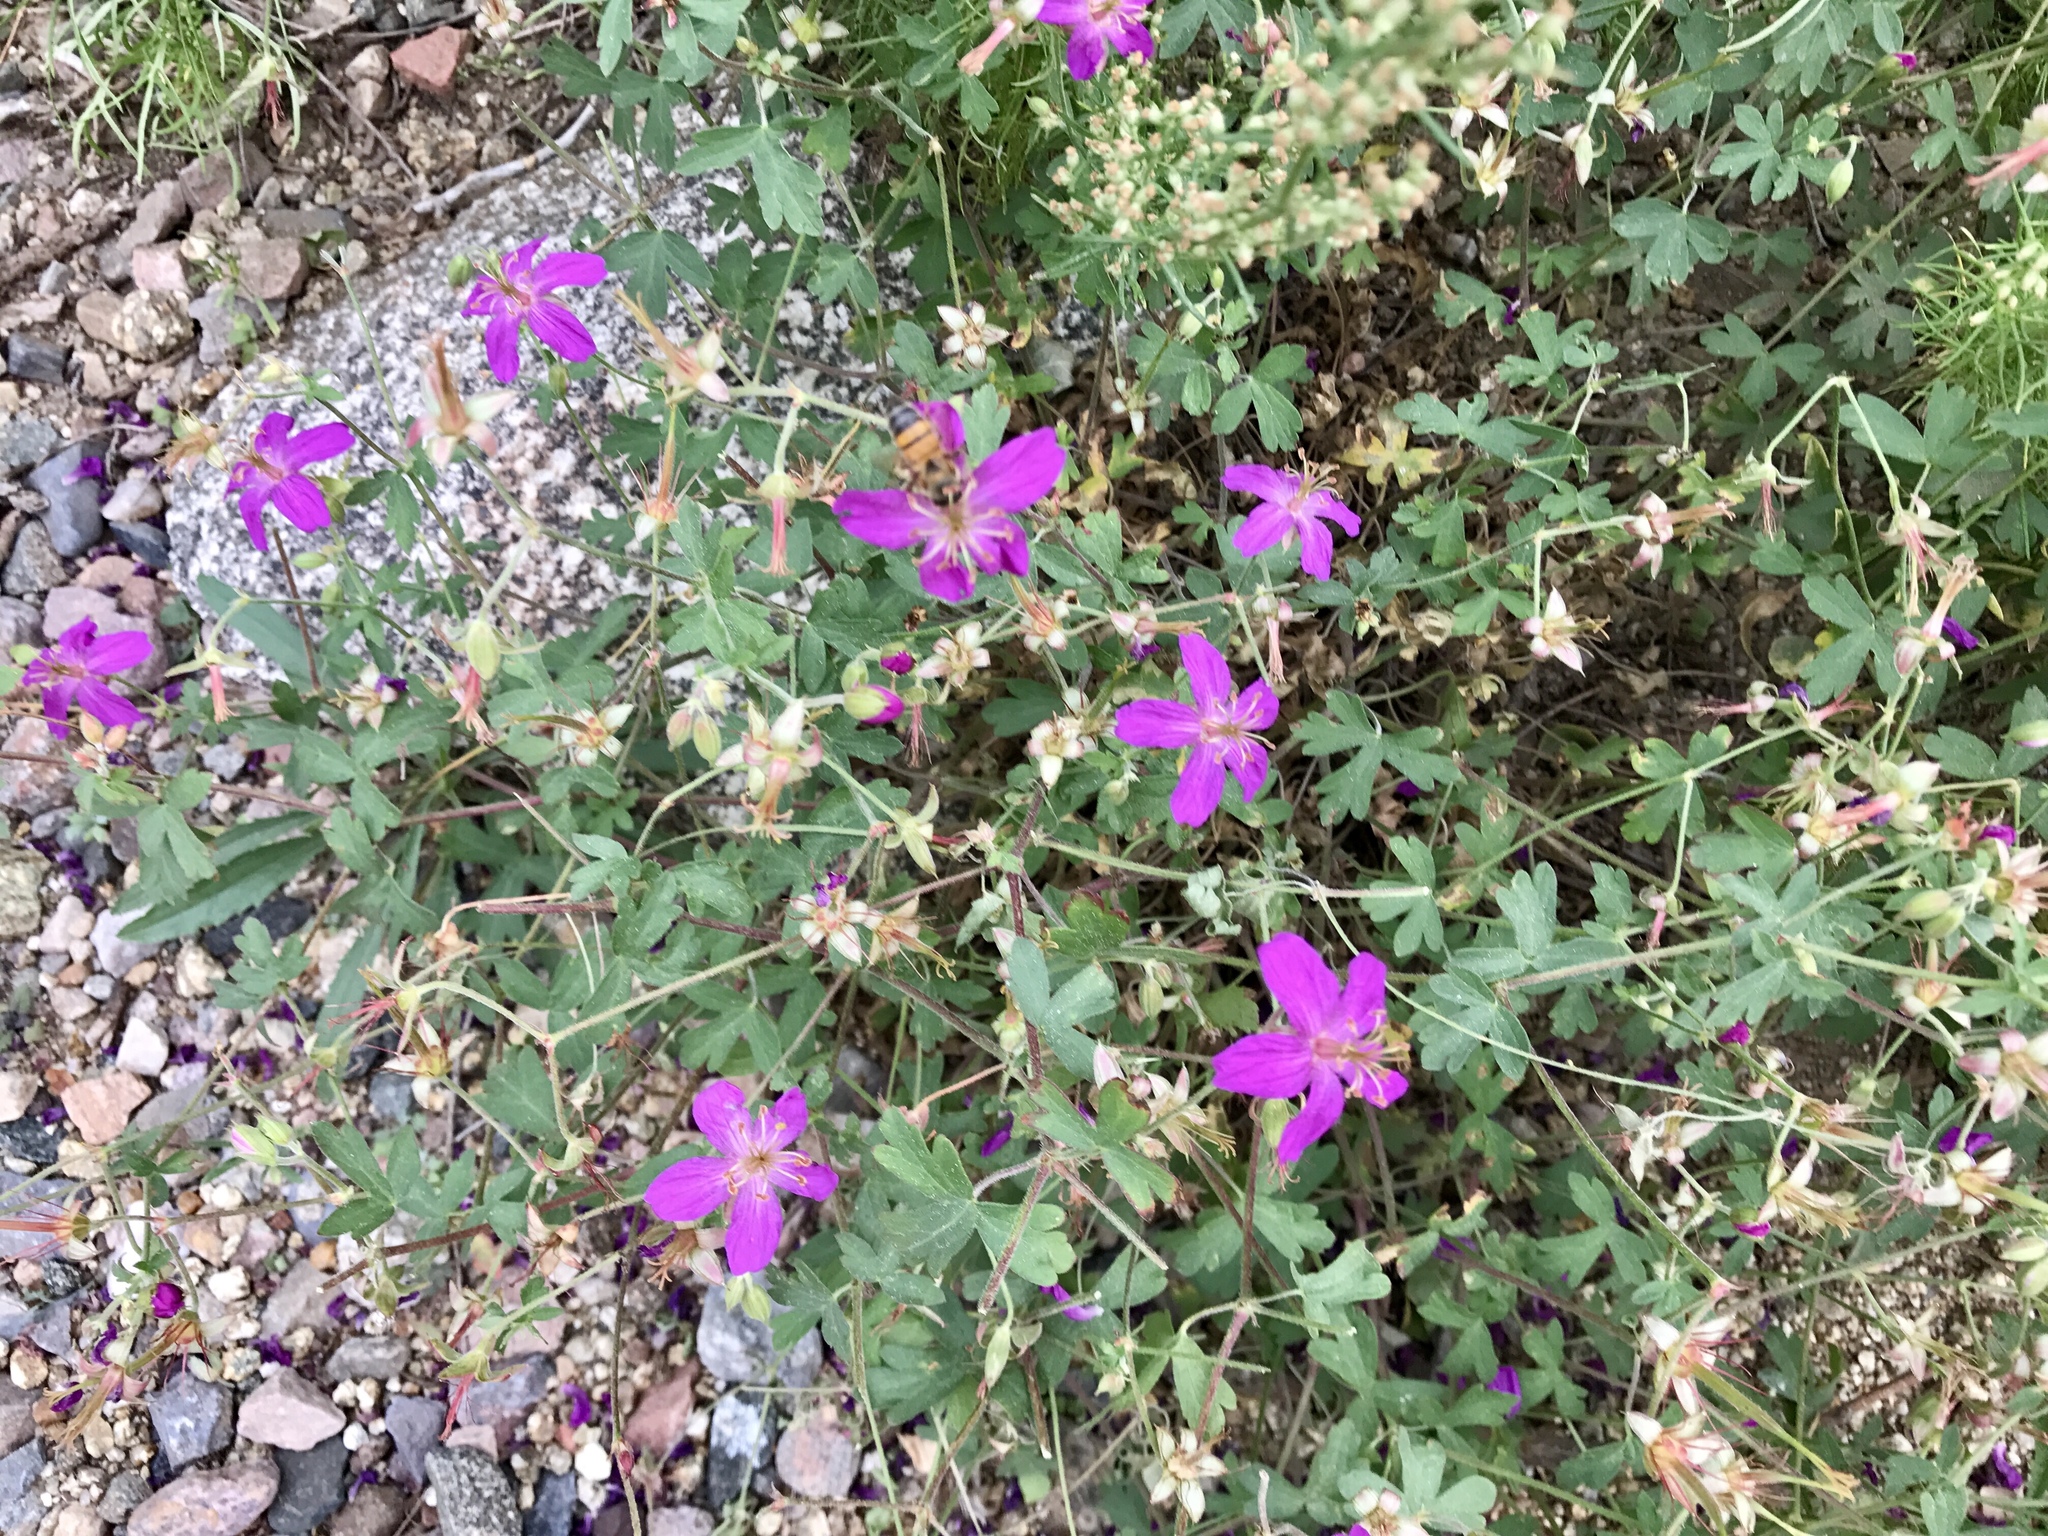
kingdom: Plantae
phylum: Tracheophyta
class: Magnoliopsida
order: Geraniales
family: Geraniaceae
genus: Geranium
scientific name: Geranium caespitosum
